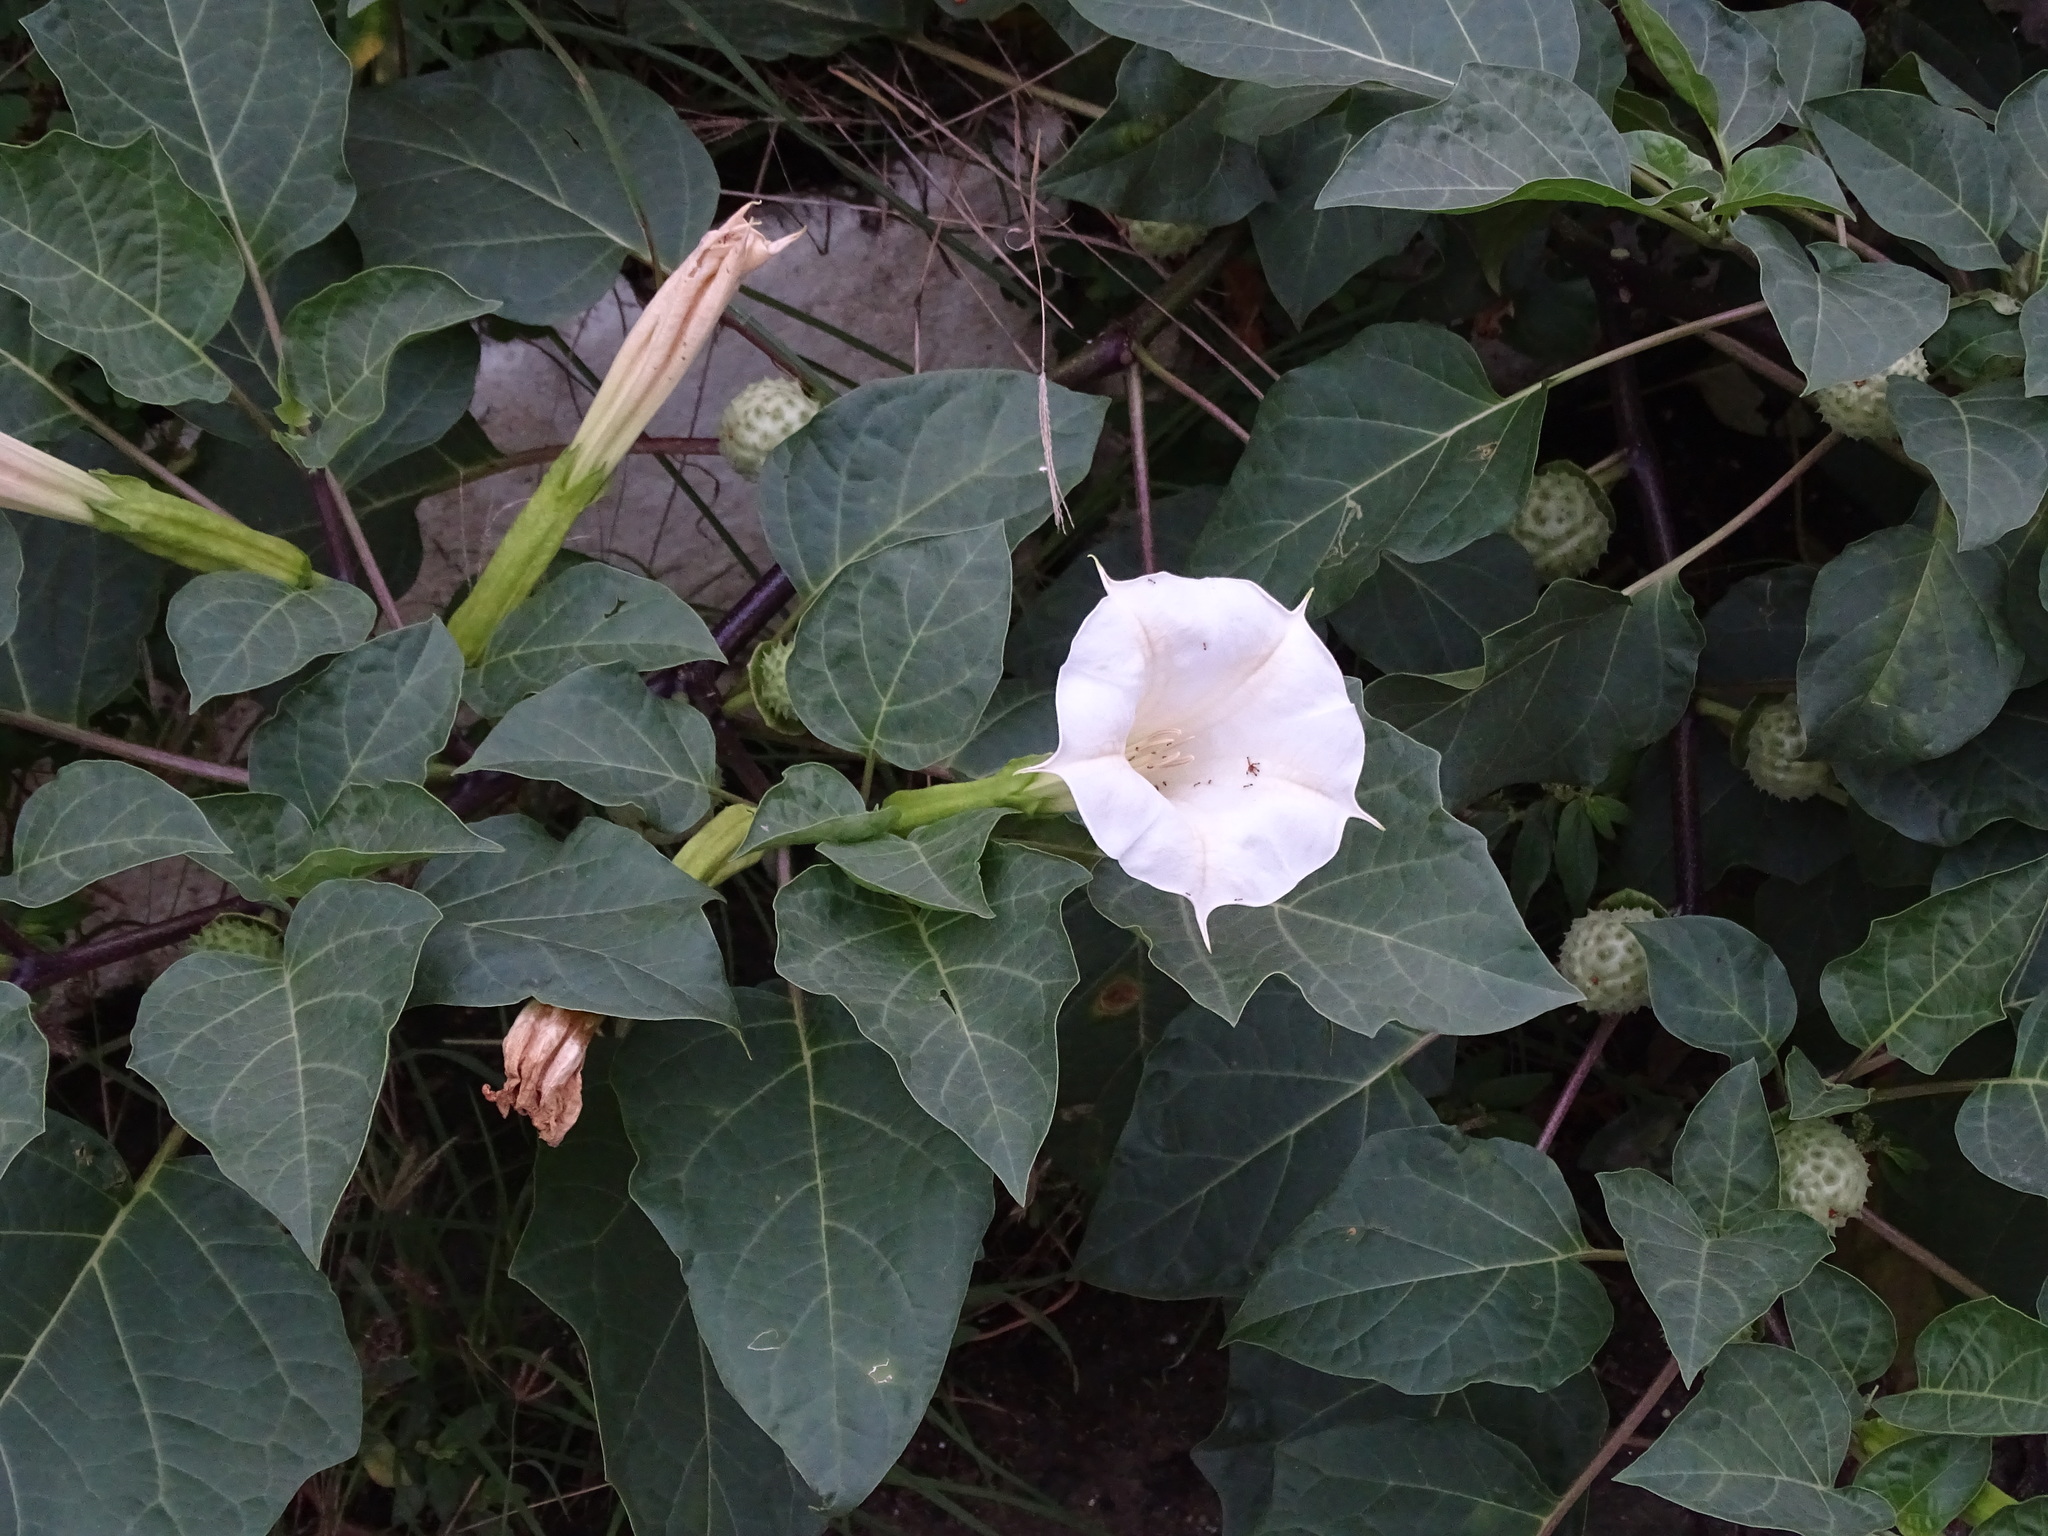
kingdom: Plantae
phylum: Tracheophyta
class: Magnoliopsida
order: Solanales
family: Solanaceae
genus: Datura
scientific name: Datura metel
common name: Jimsonweed
